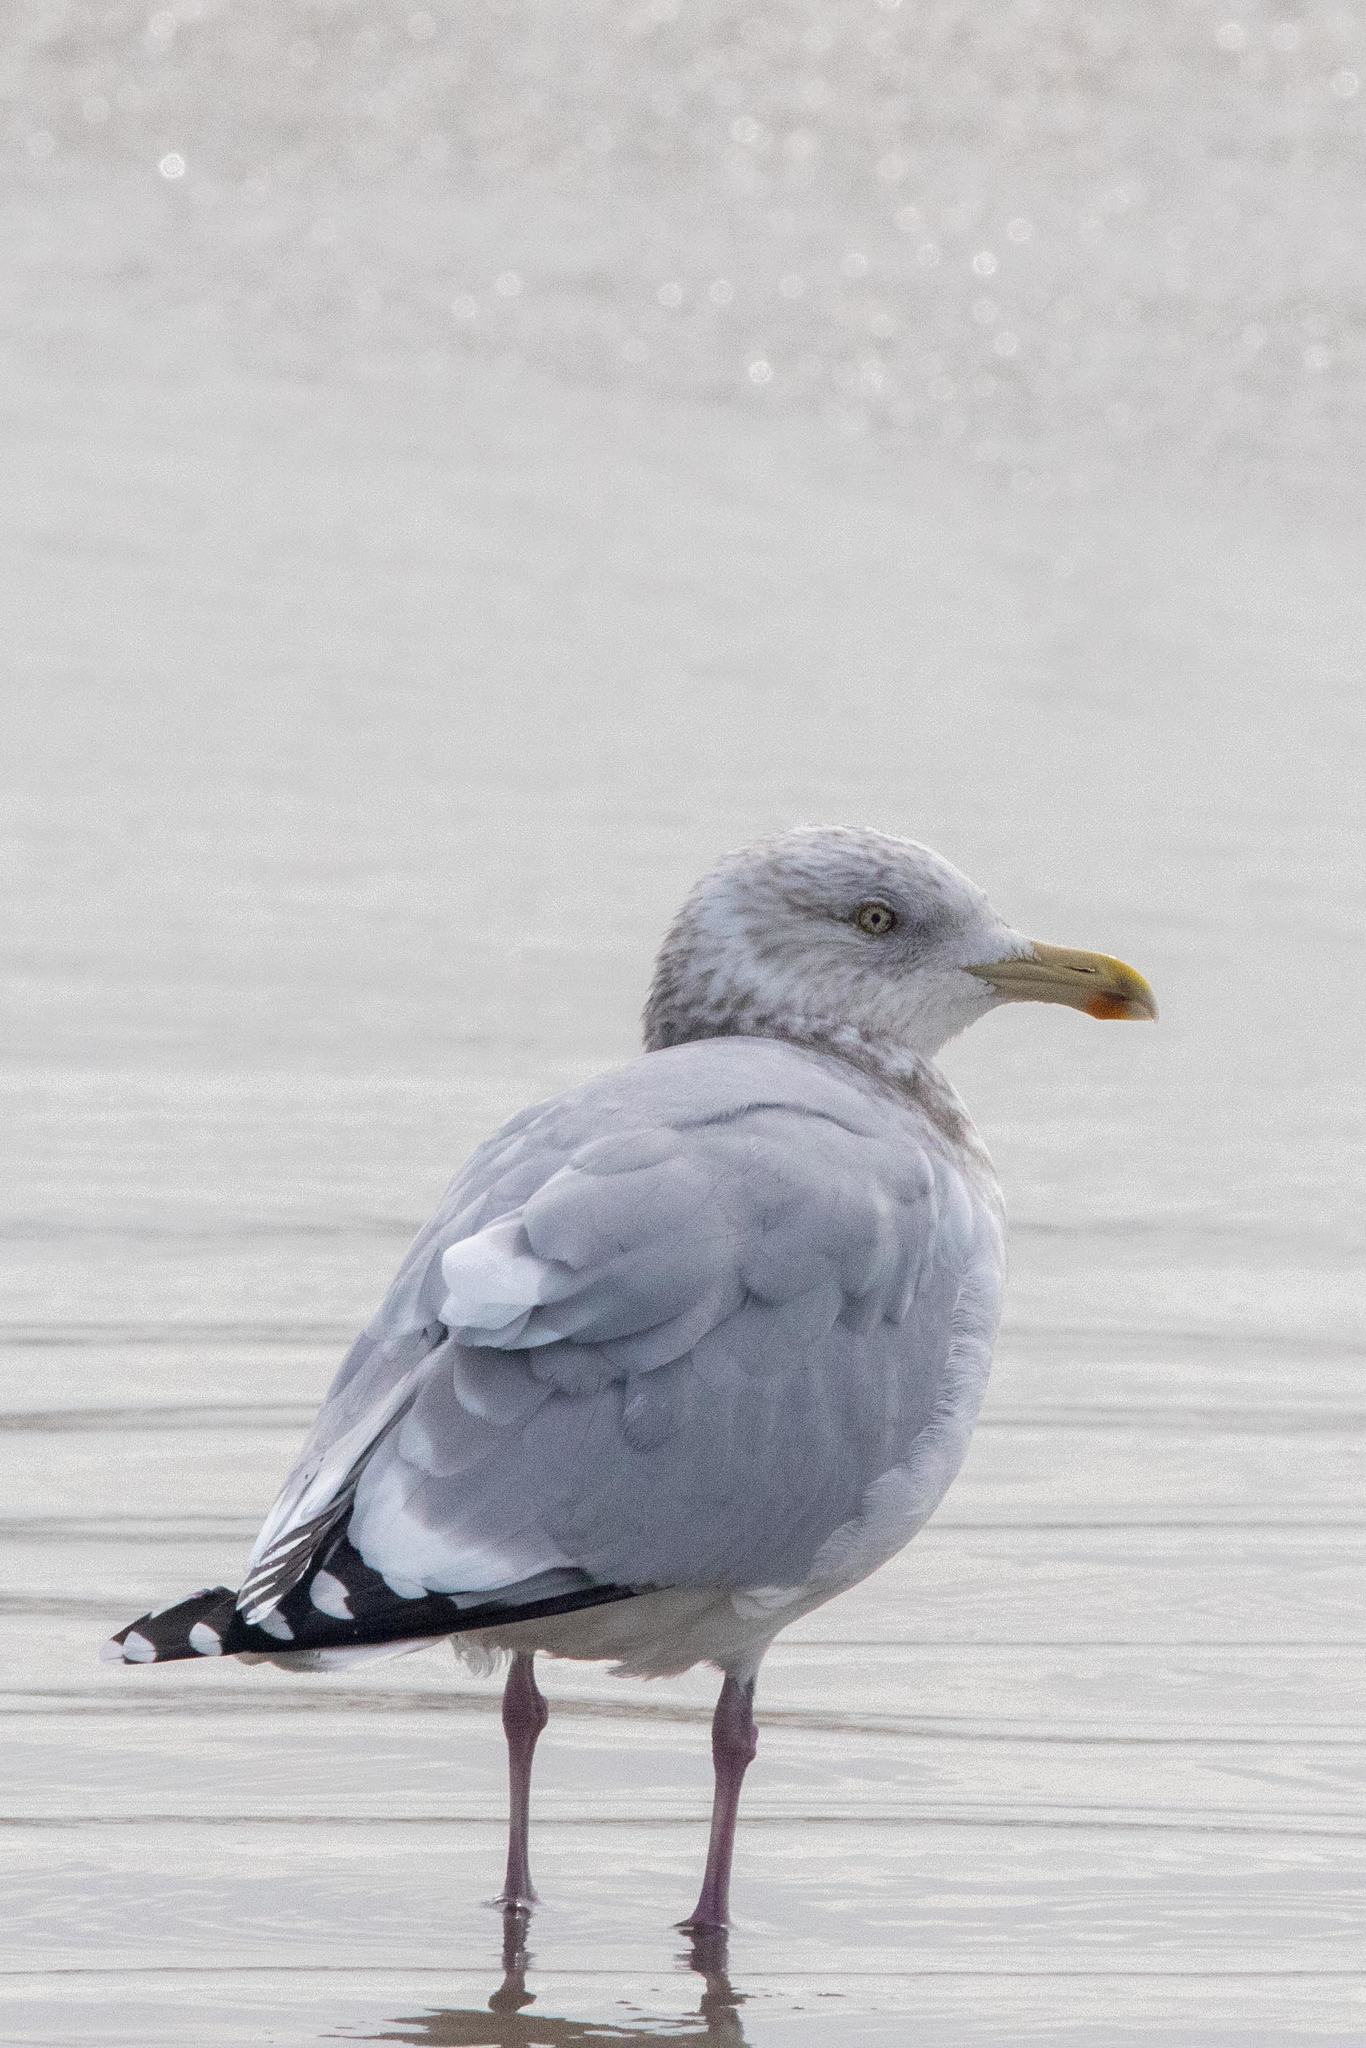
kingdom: Animalia
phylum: Chordata
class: Aves
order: Charadriiformes
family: Laridae
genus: Larus
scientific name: Larus argentatus
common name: Herring gull
